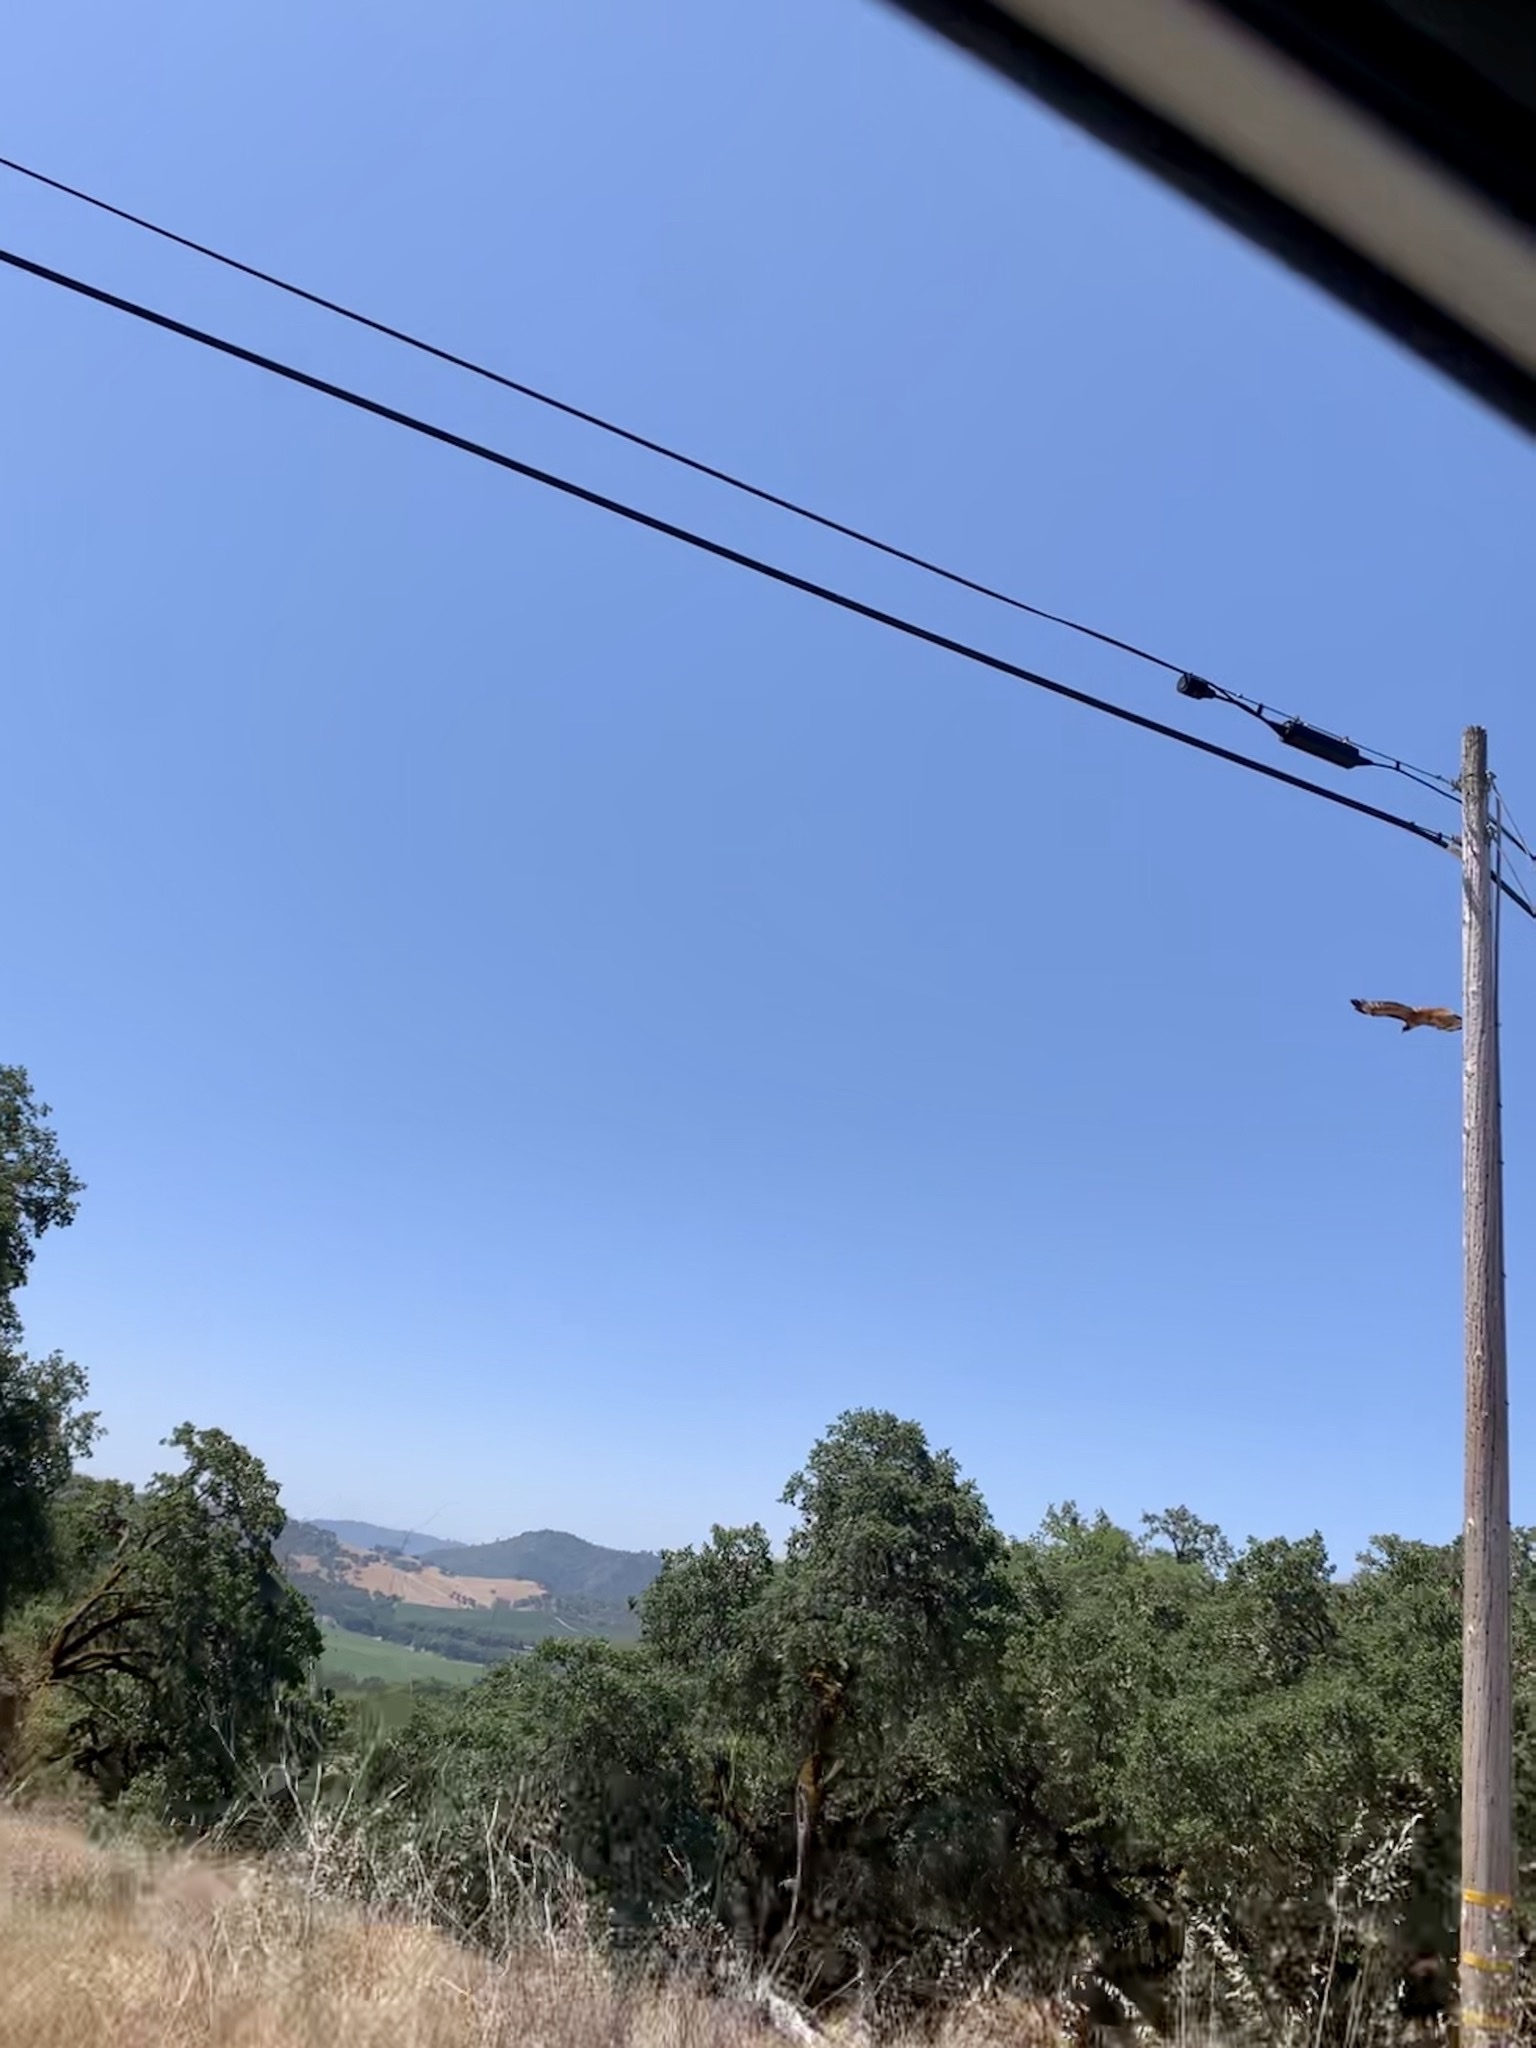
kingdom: Animalia
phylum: Chordata
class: Aves
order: Accipitriformes
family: Accipitridae
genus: Buteo
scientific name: Buteo jamaicensis
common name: Red-tailed hawk
